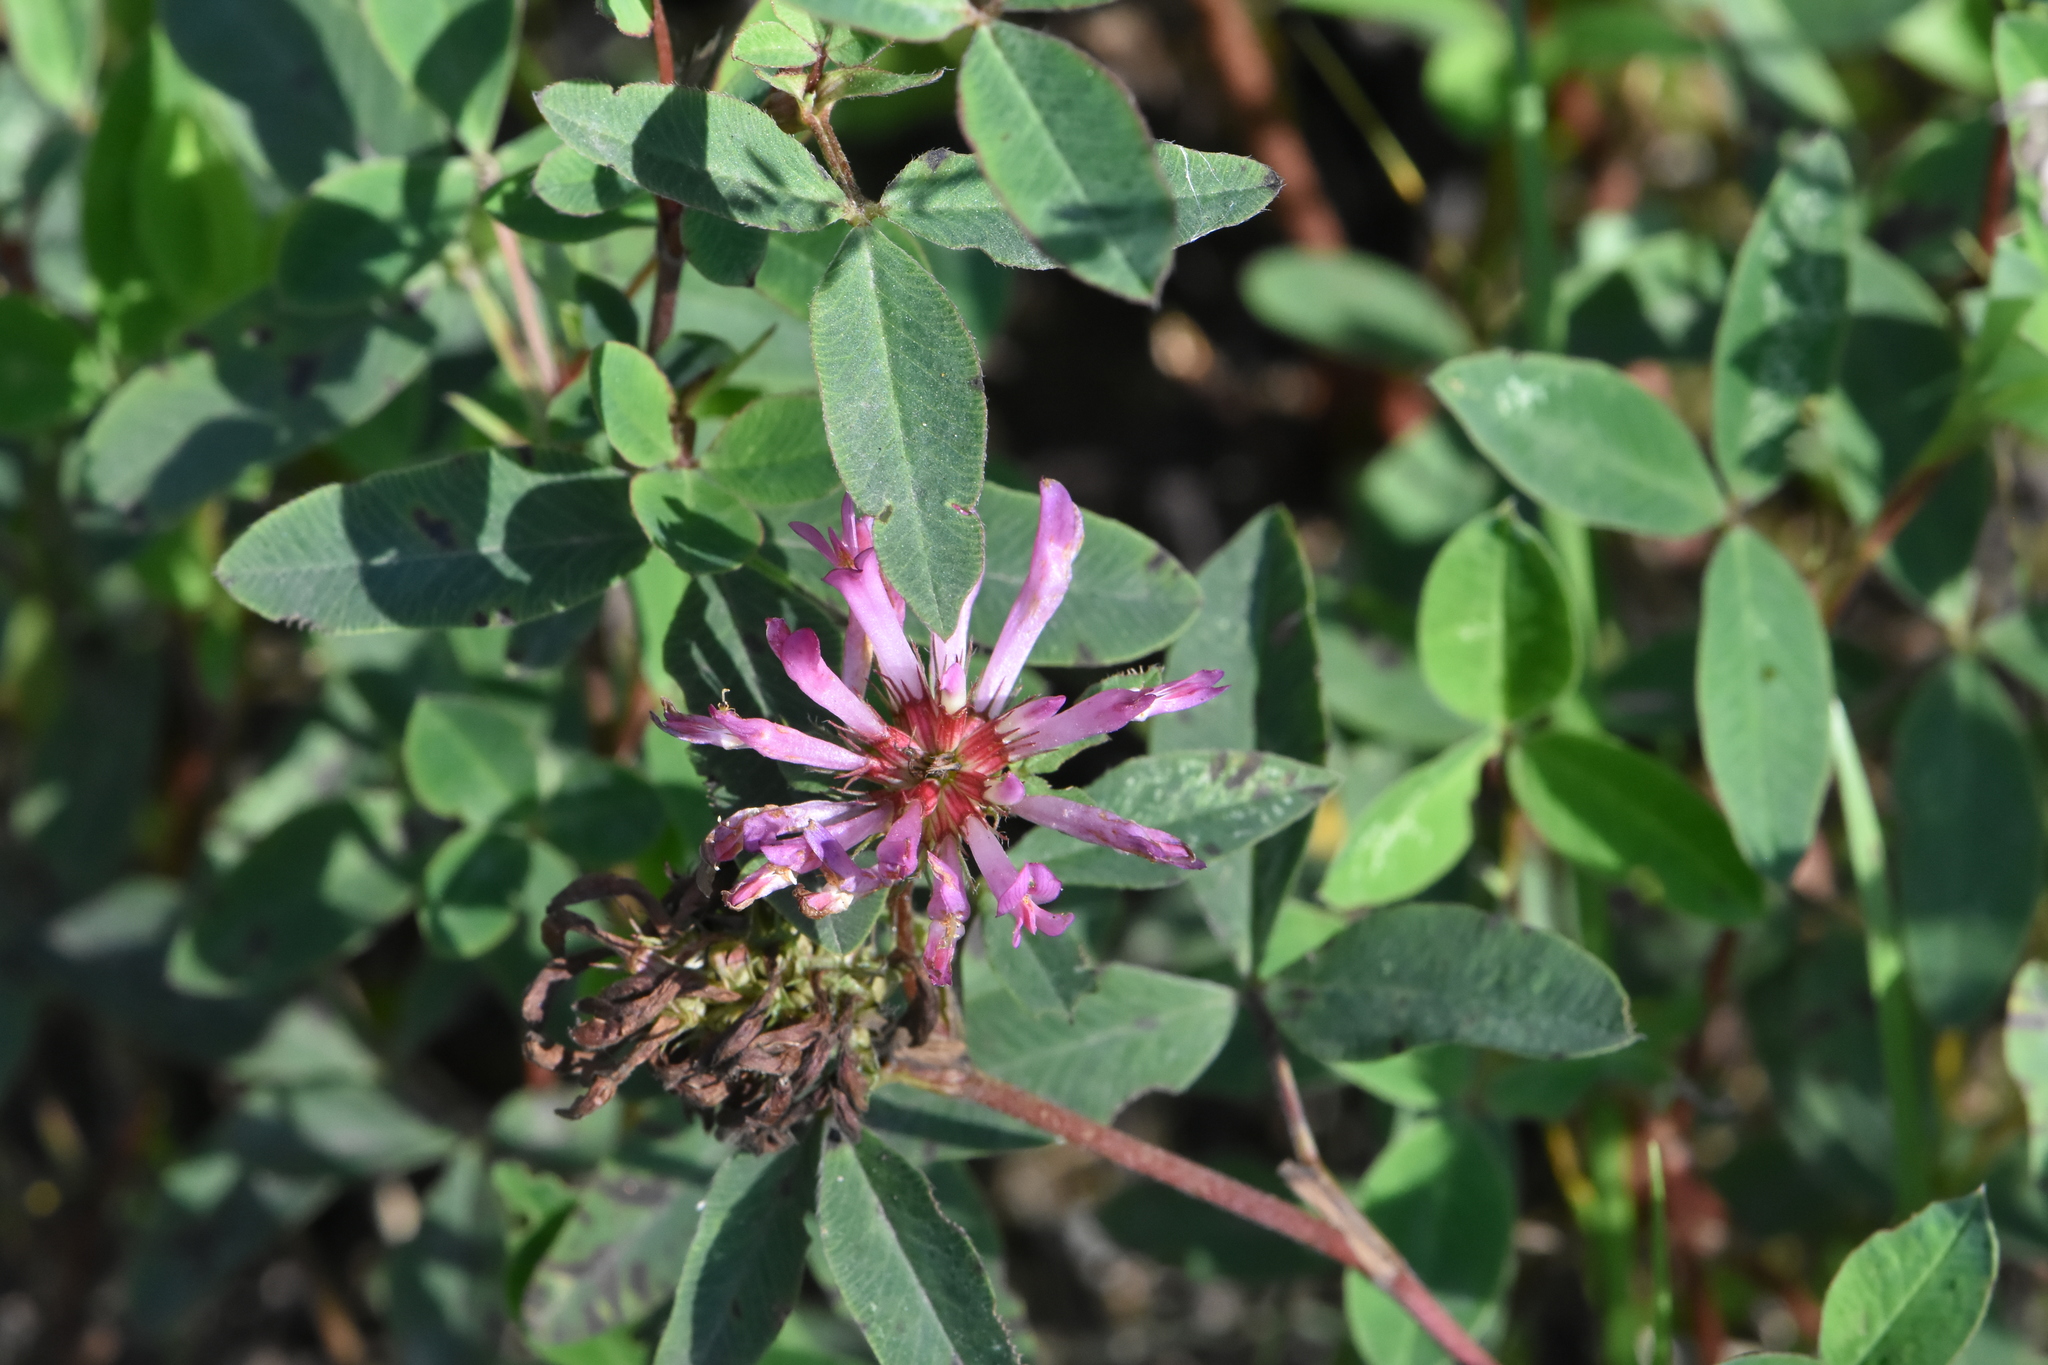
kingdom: Plantae
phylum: Tracheophyta
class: Magnoliopsida
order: Fabales
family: Fabaceae
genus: Trifolium
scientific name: Trifolium medium
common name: Zigzag clover
